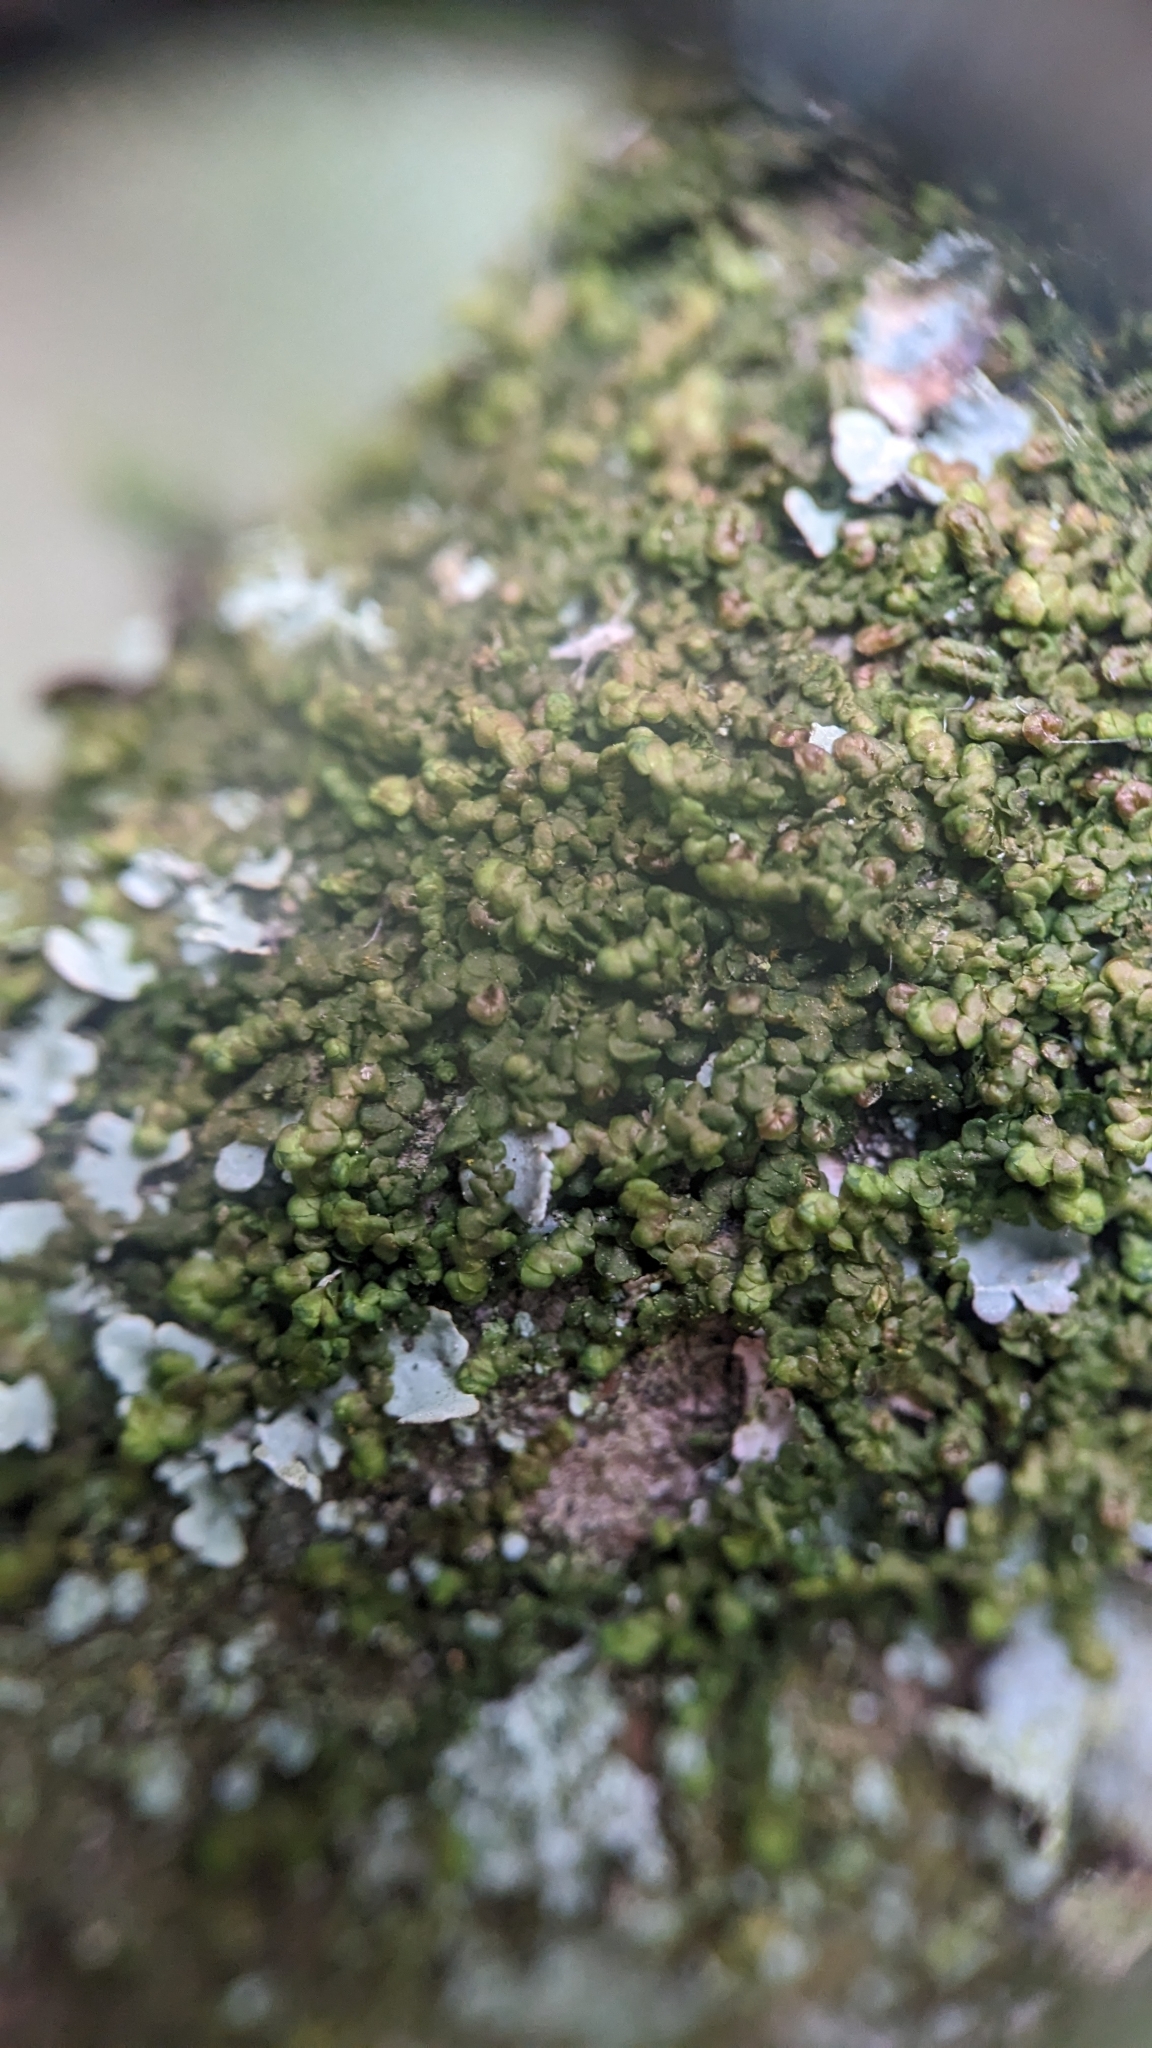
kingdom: Plantae
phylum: Marchantiophyta
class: Jungermanniopsida
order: Porellales
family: Frullaniaceae
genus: Frullania
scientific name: Frullania dilatata
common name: Dilated scalewort
